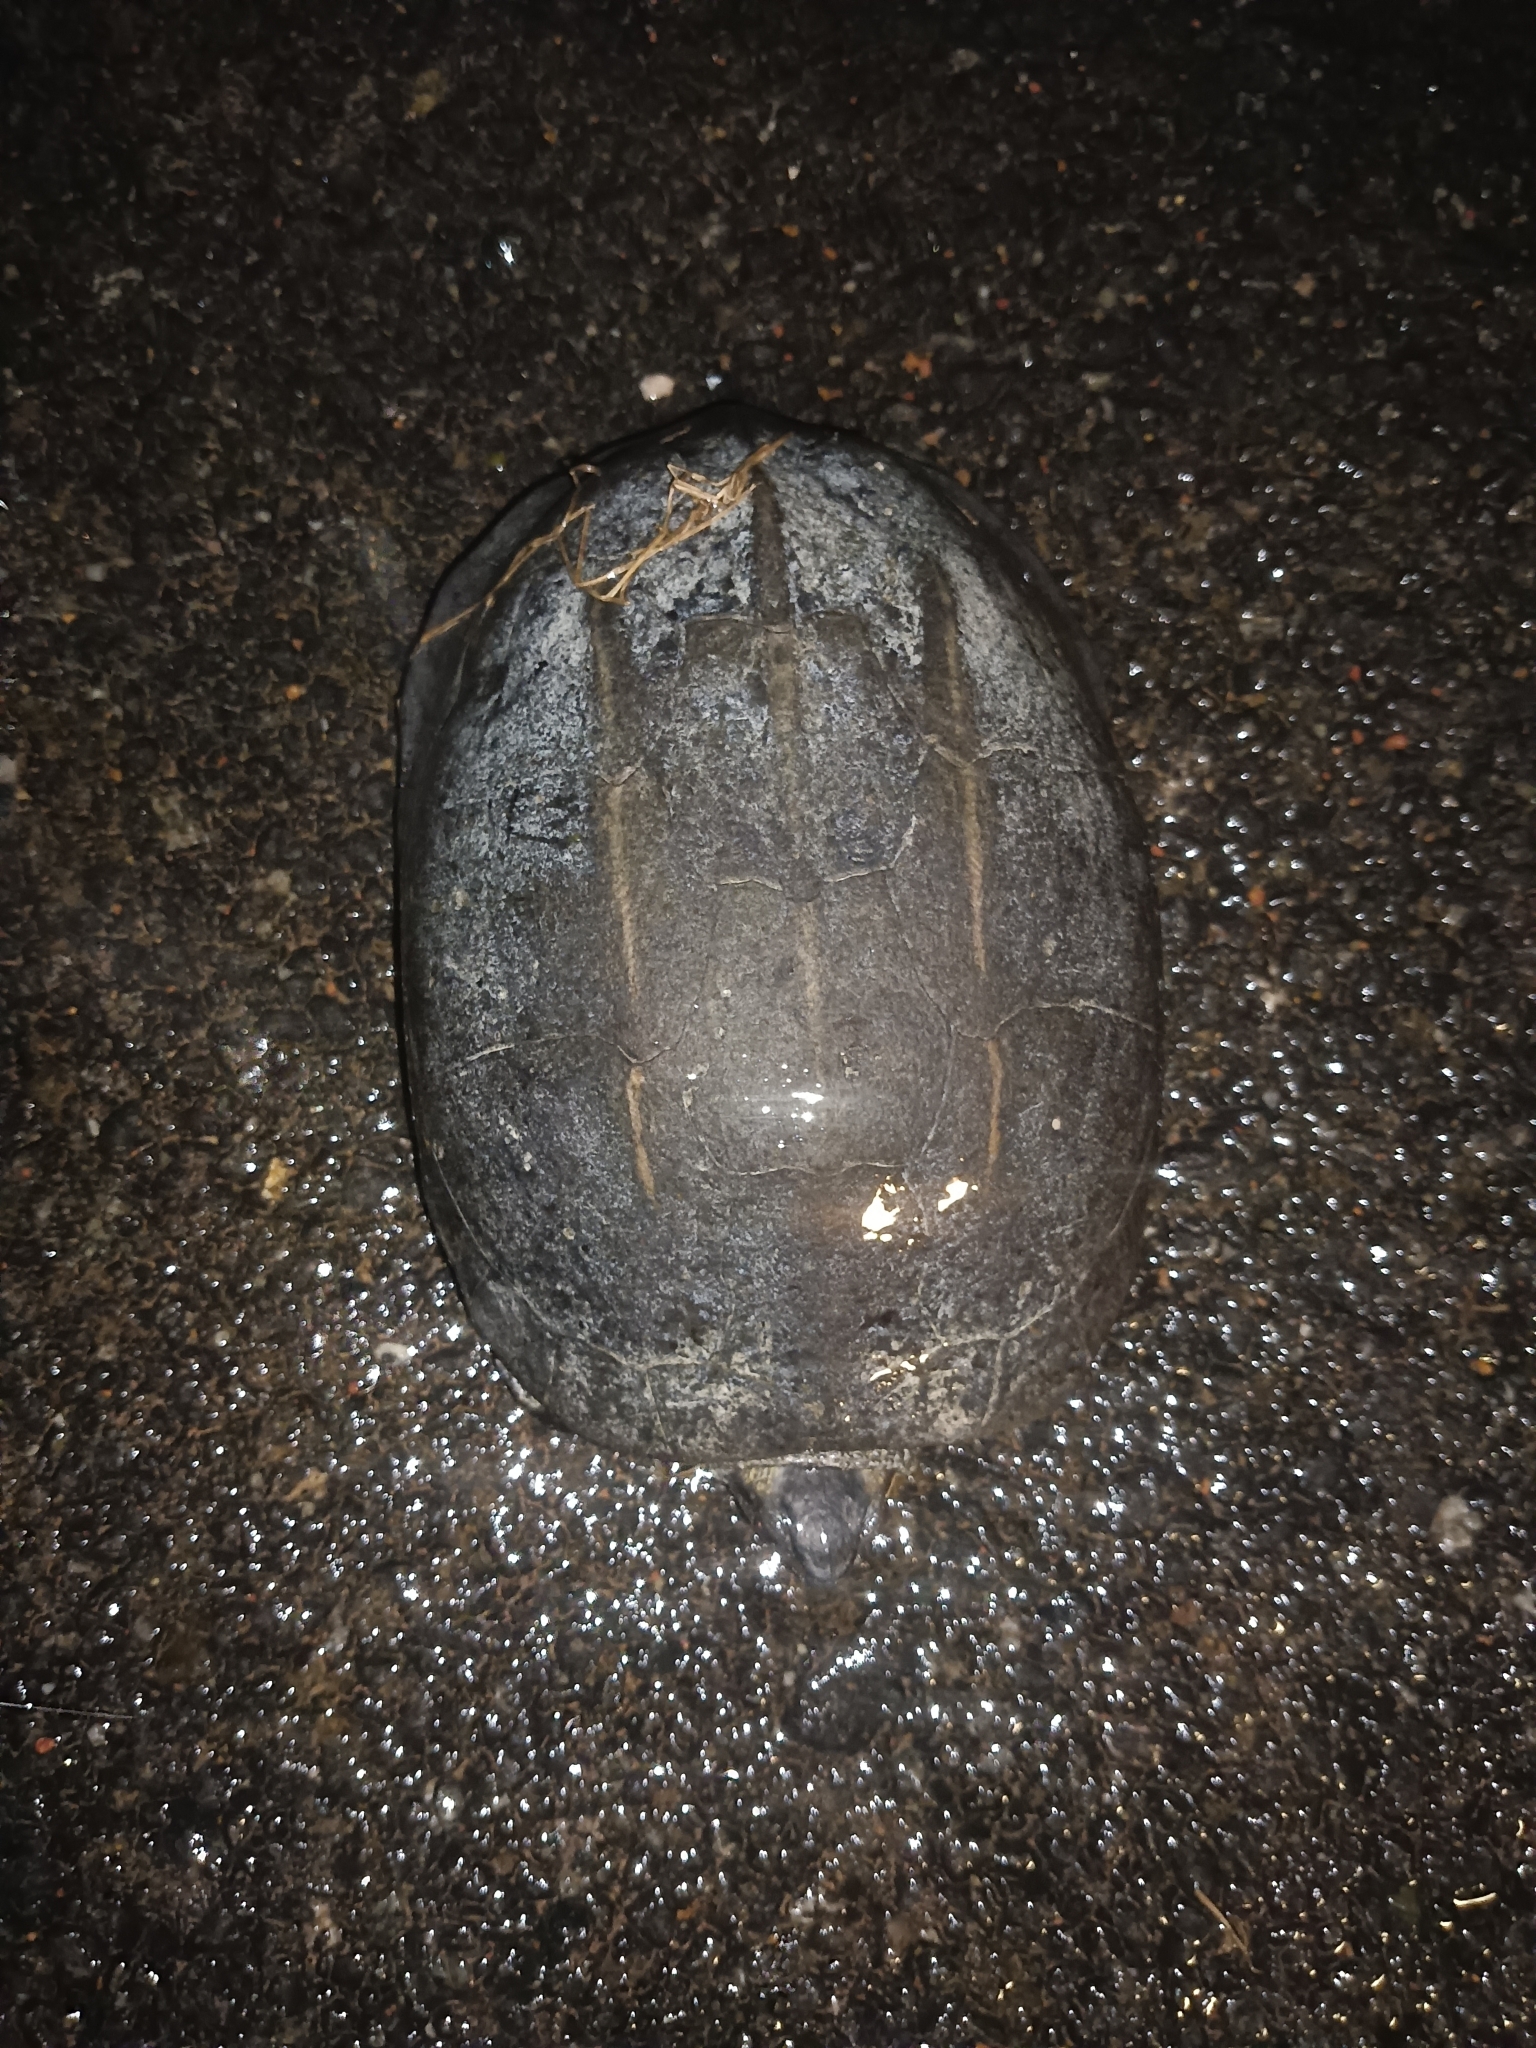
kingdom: Animalia
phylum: Chordata
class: Testudines
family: Geoemydidae
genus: Melanochelys
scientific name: Melanochelys trijuga
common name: Indian black turtle
